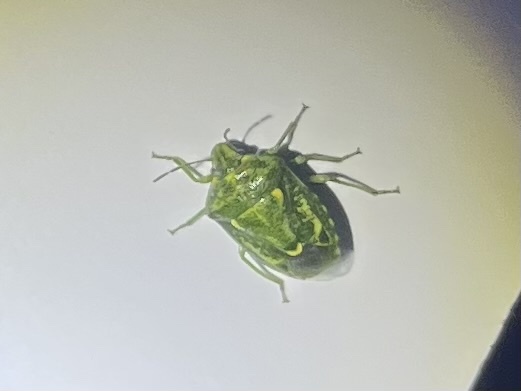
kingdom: Animalia
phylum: Arthropoda
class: Insecta
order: Hemiptera
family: Pentatomidae
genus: Banasa
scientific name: Banasa euchlora
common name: Cedar berry bug
